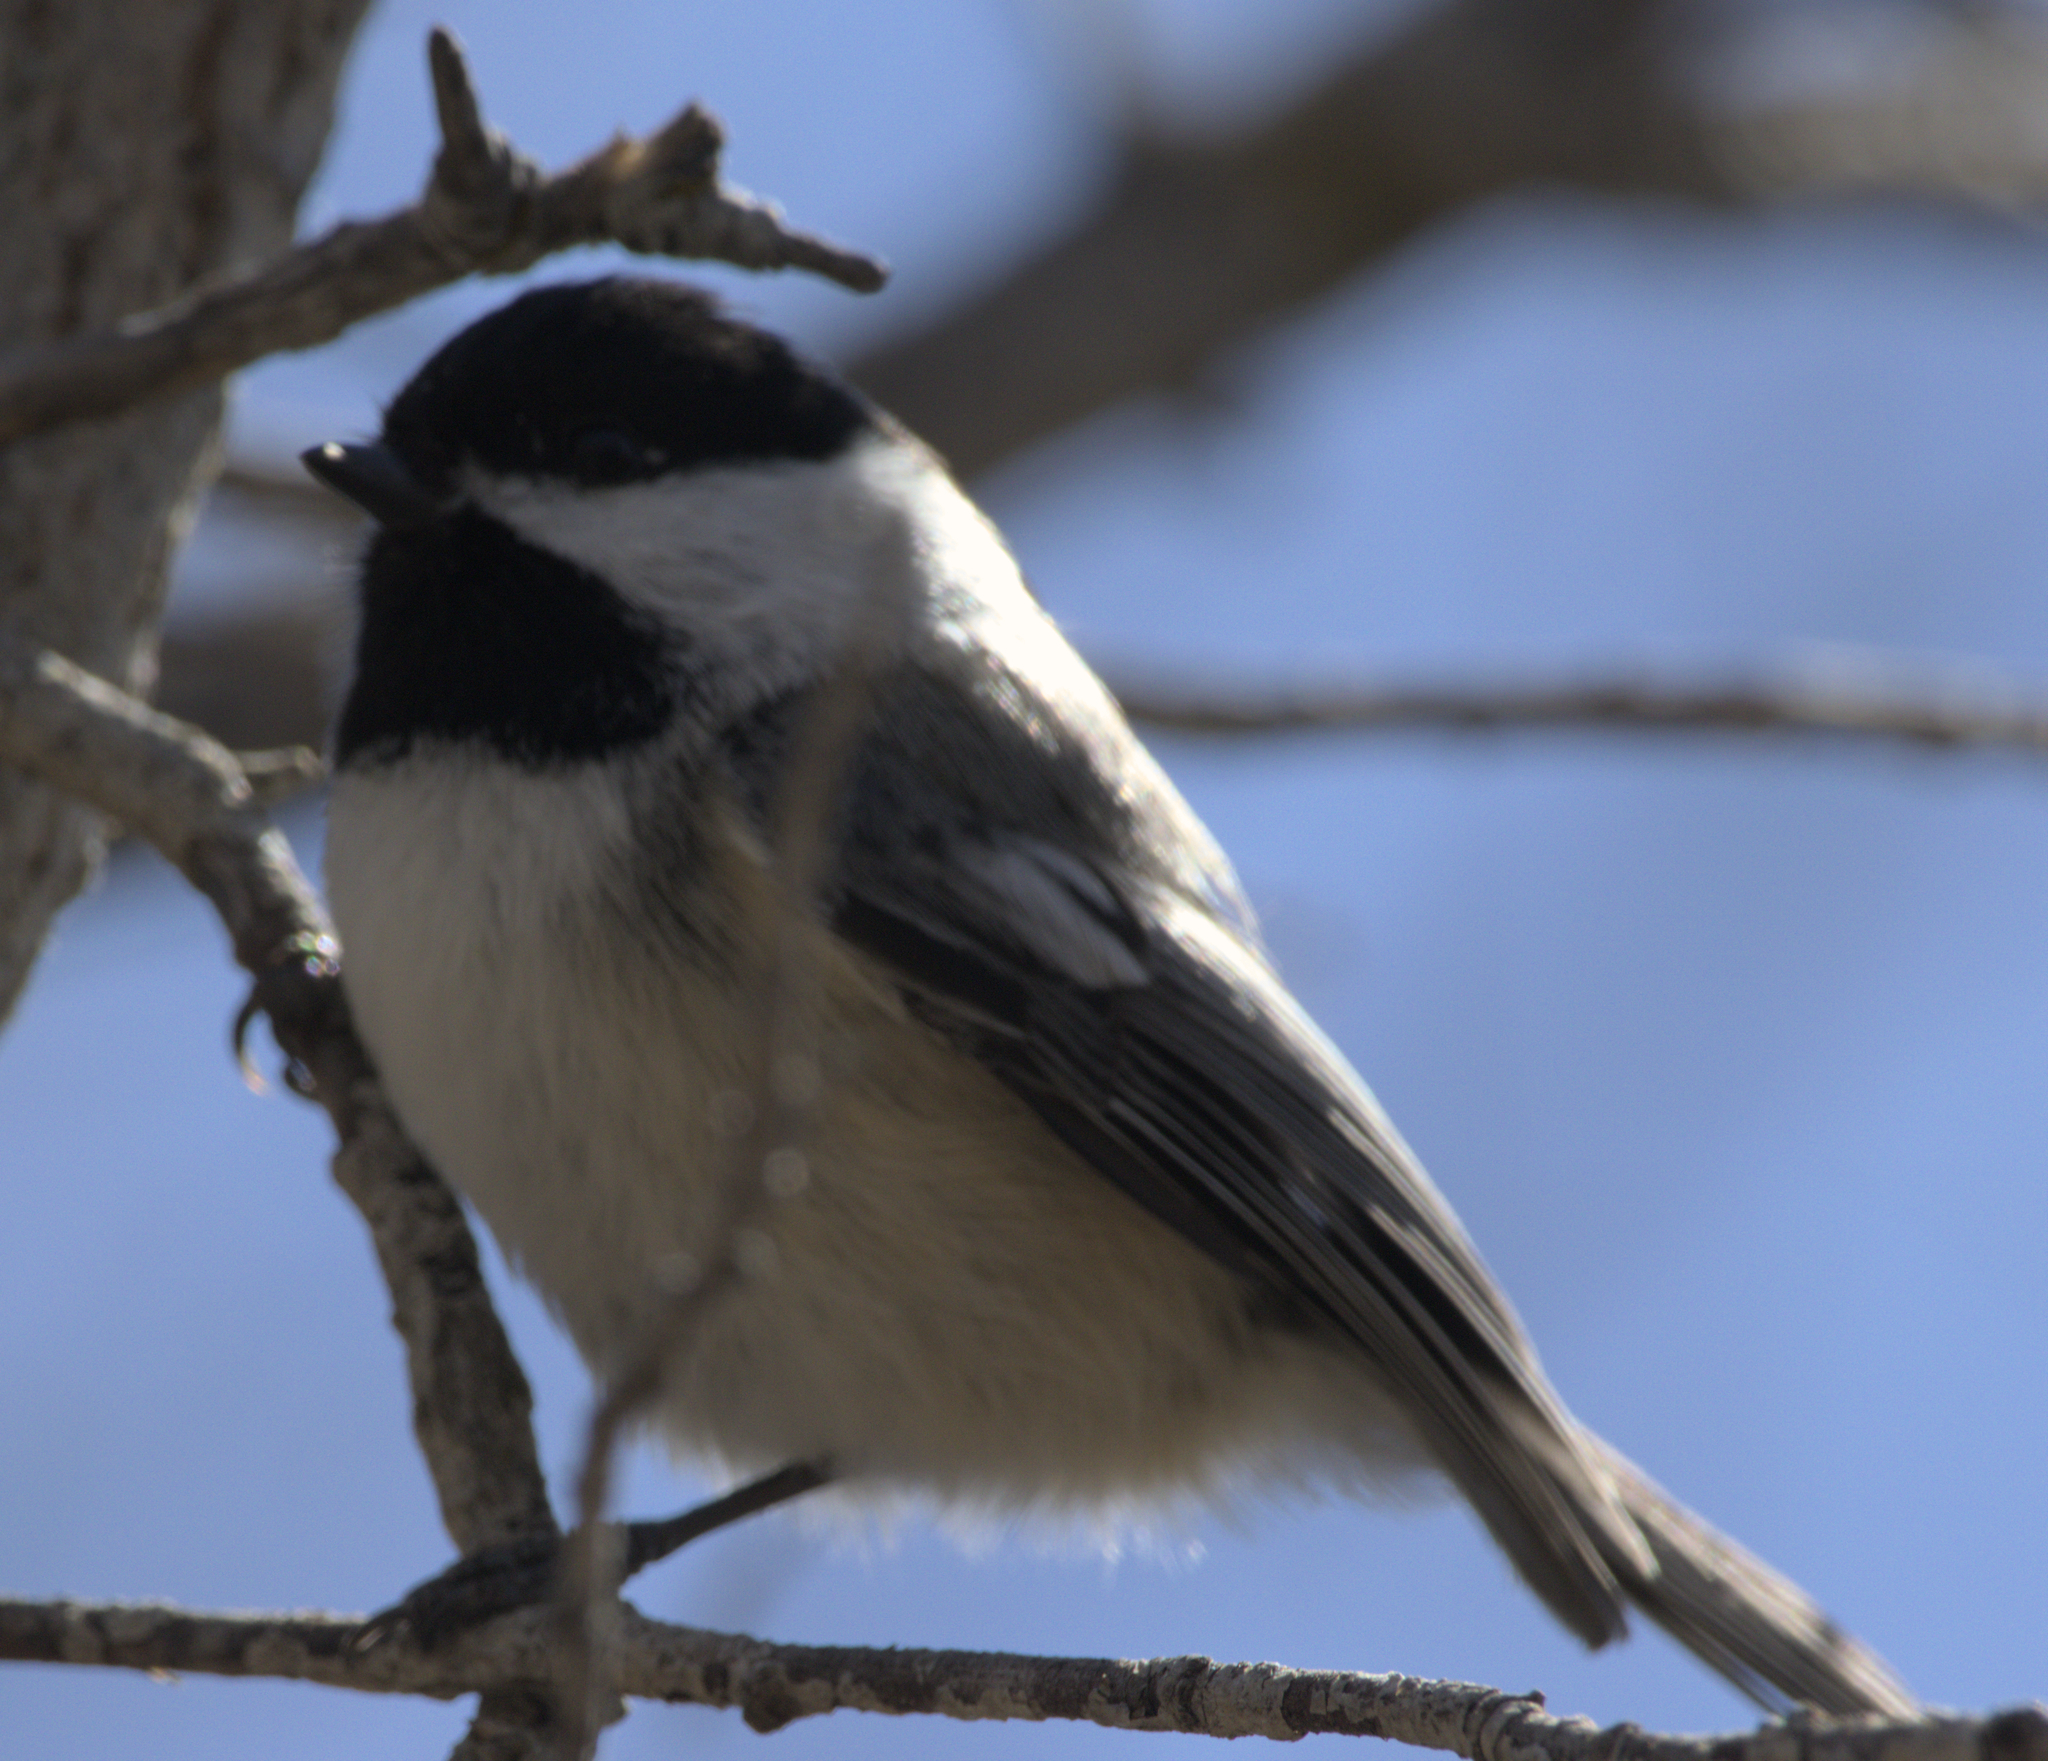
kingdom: Animalia
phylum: Chordata
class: Aves
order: Passeriformes
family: Paridae
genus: Poecile
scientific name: Poecile atricapillus
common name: Black-capped chickadee
